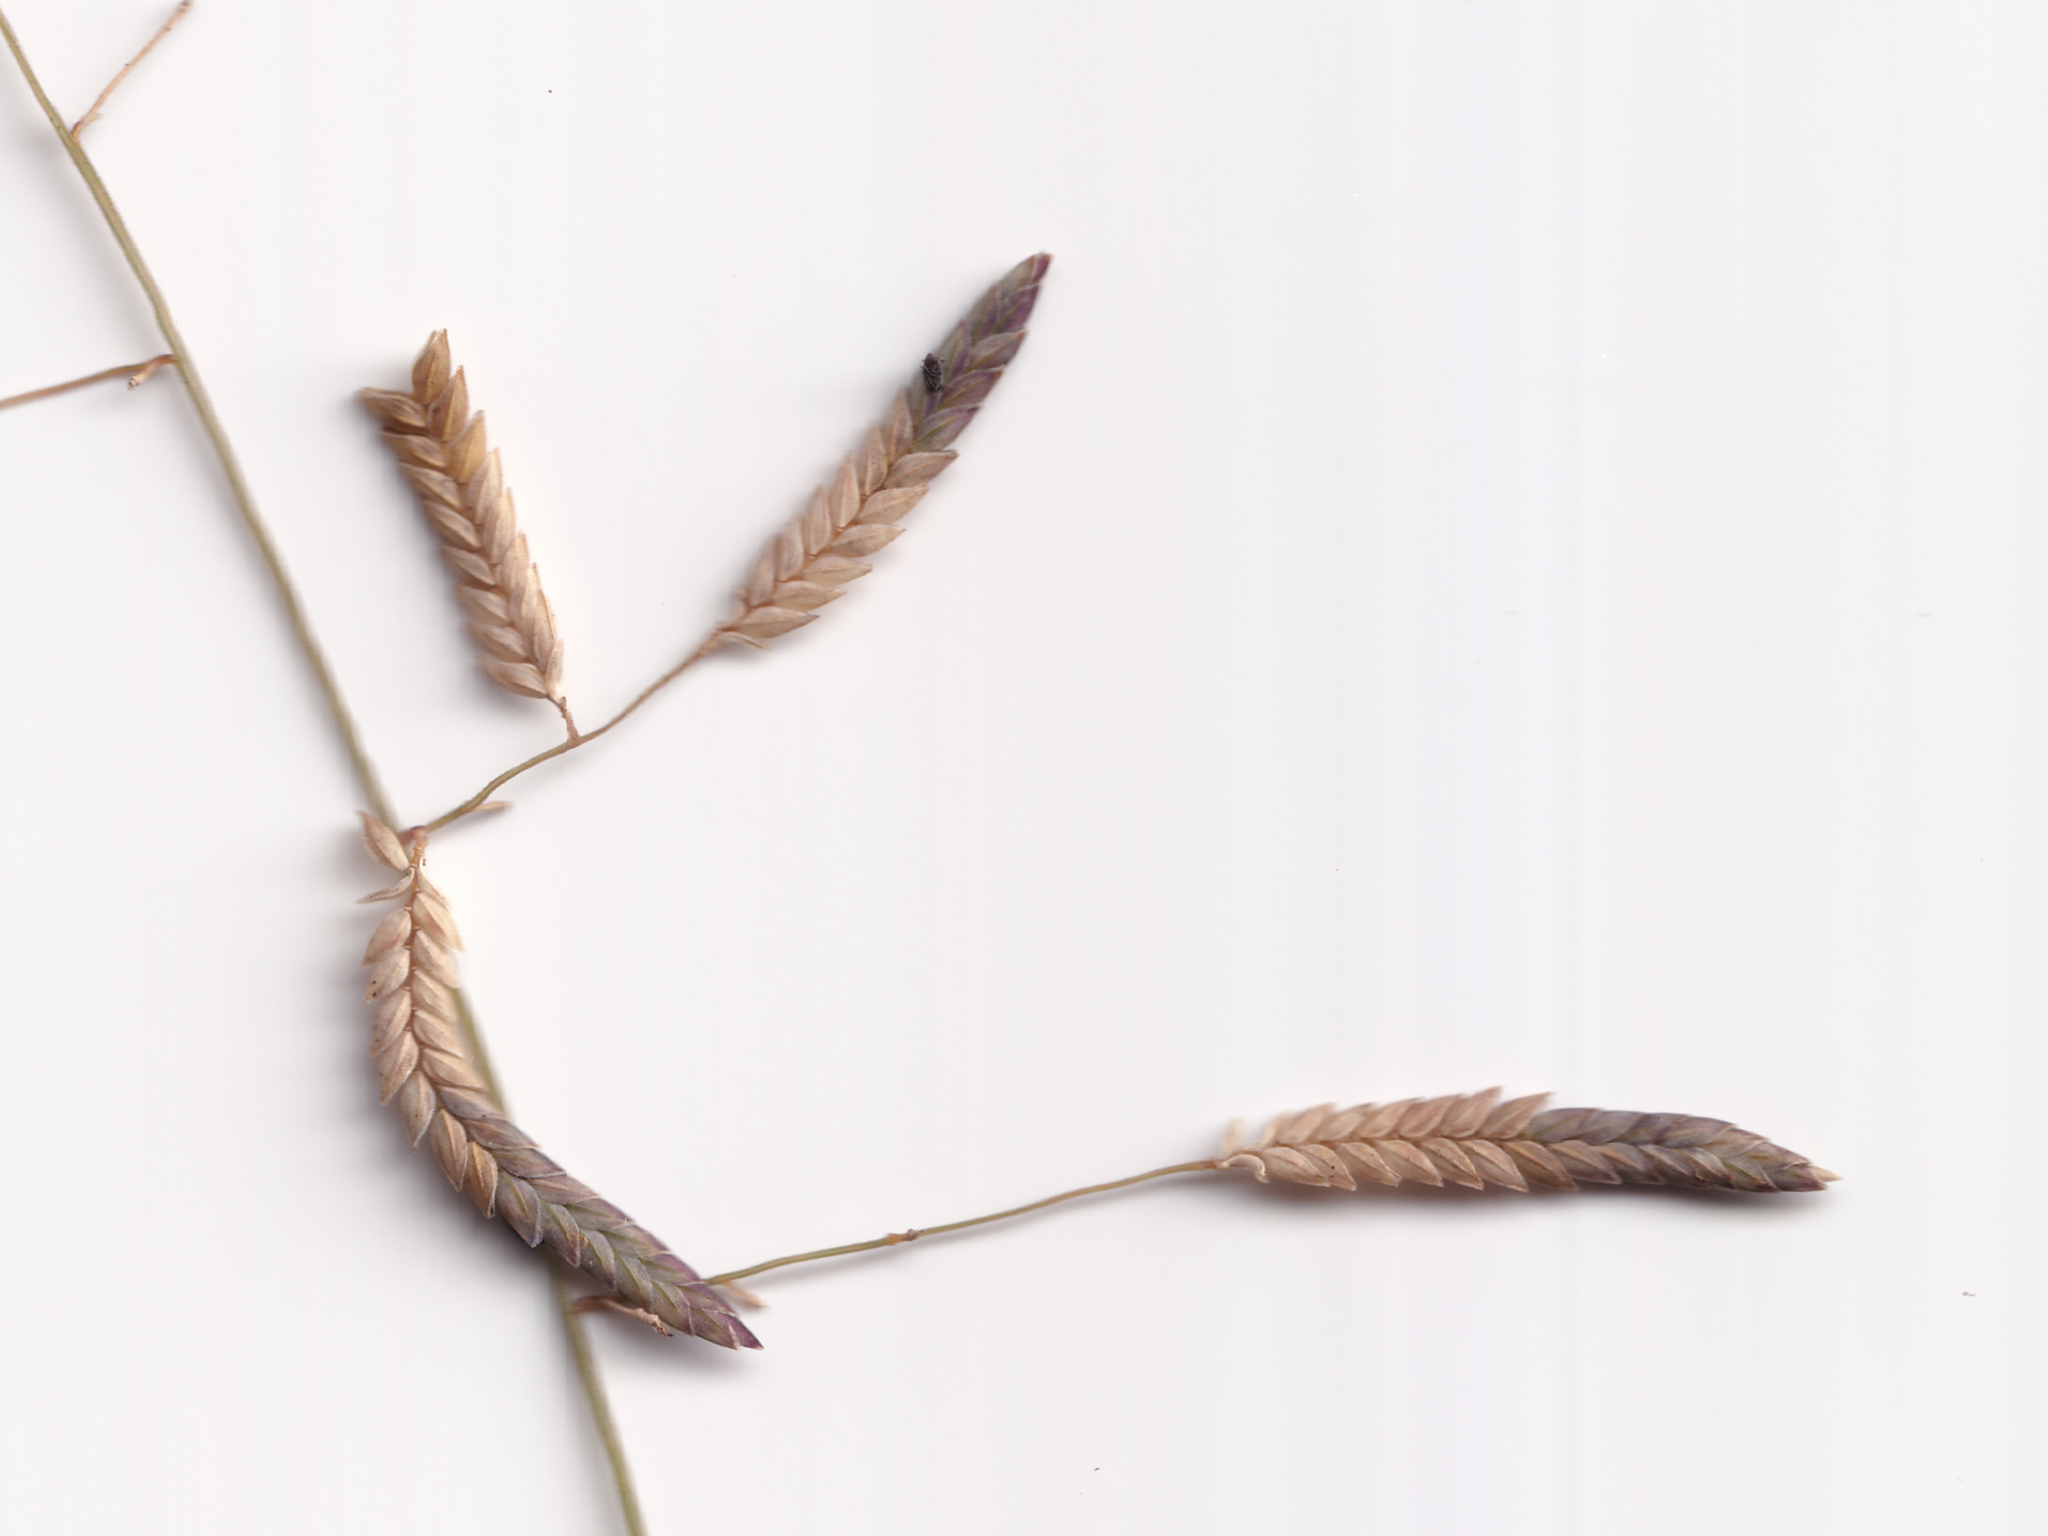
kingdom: Plantae
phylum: Tracheophyta
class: Liliopsida
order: Poales
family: Poaceae
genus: Eragrostis
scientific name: Eragrostis brownii
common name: Lovegrass
